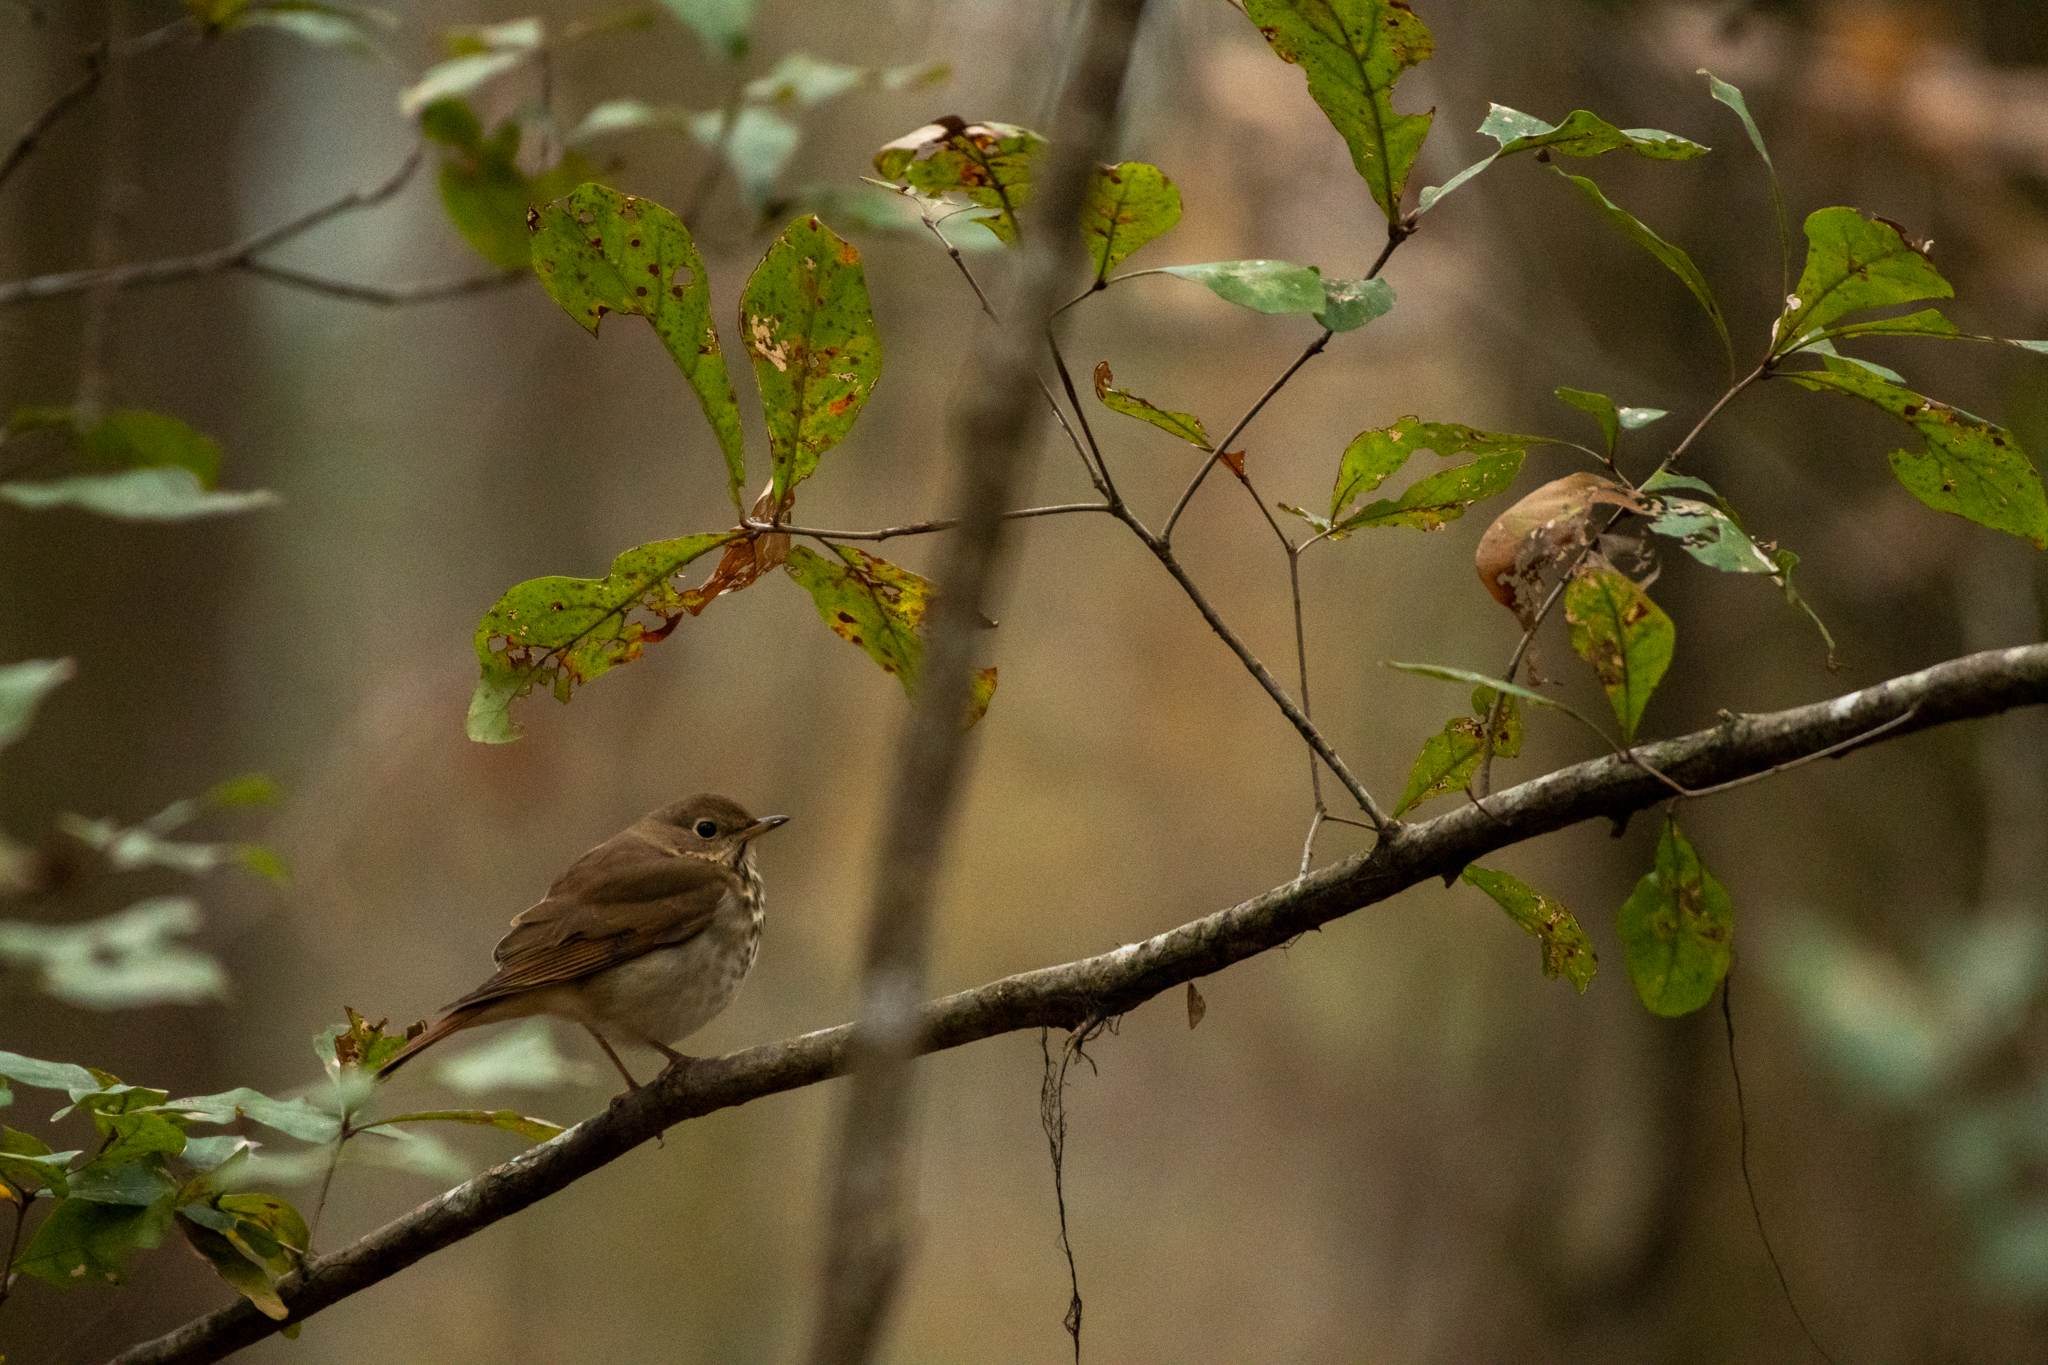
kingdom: Animalia
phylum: Chordata
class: Aves
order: Passeriformes
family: Turdidae
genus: Catharus
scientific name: Catharus guttatus
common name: Hermit thrush
